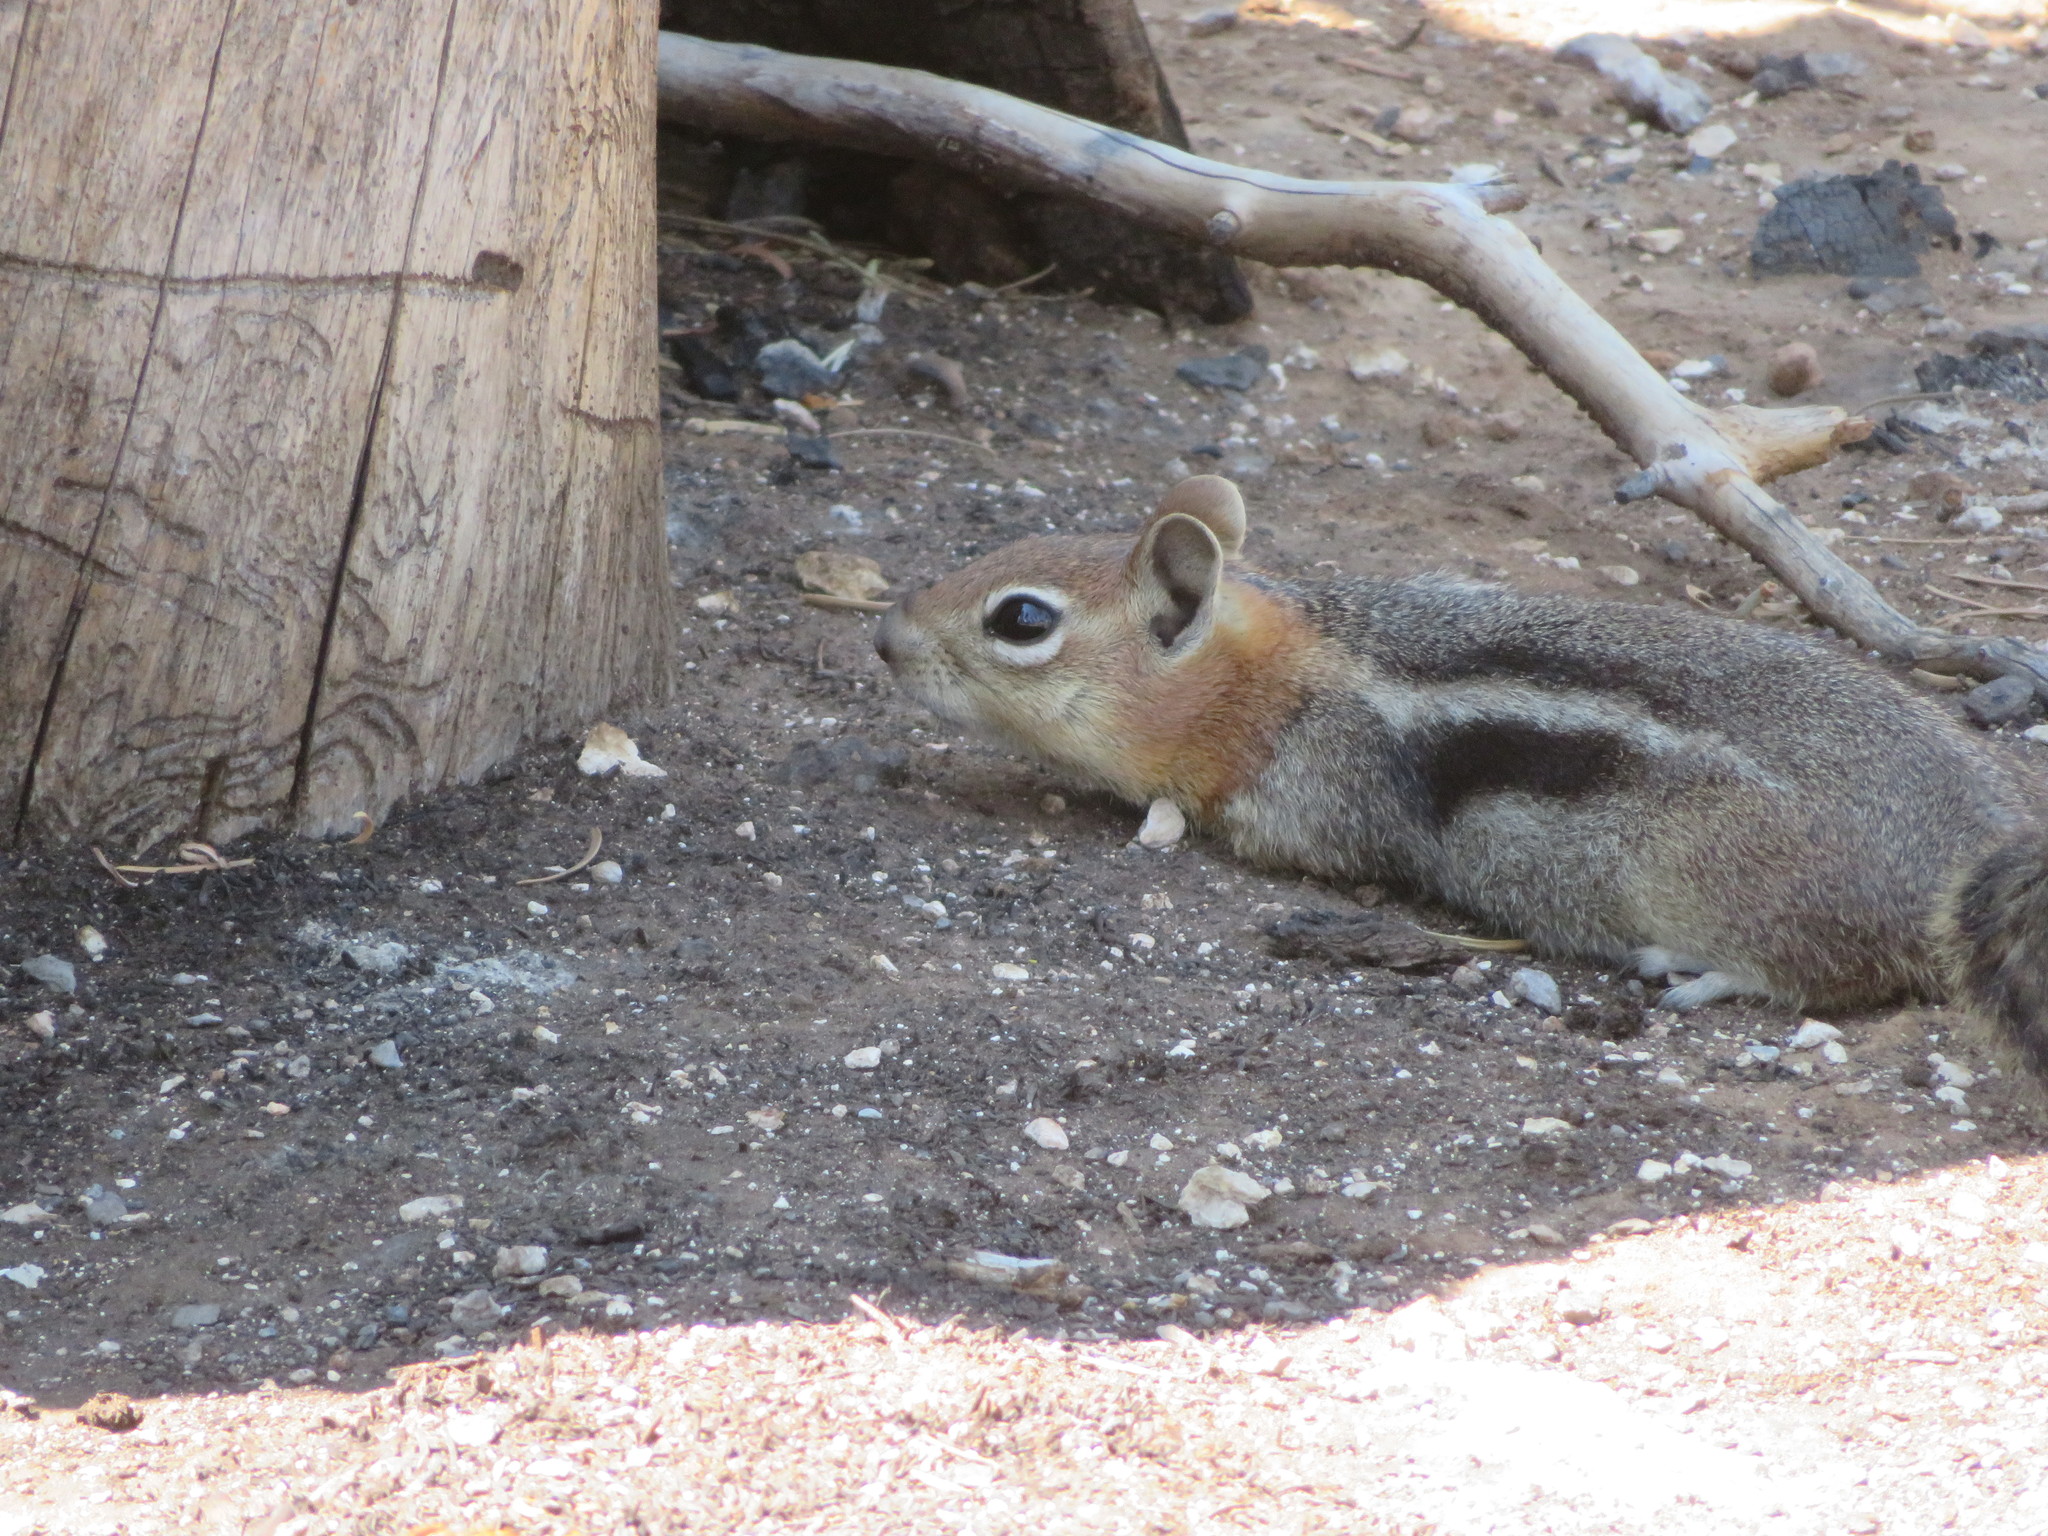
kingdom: Animalia
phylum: Chordata
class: Mammalia
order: Rodentia
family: Sciuridae
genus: Callospermophilus
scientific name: Callospermophilus lateralis
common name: Golden-mantled ground squirrel
